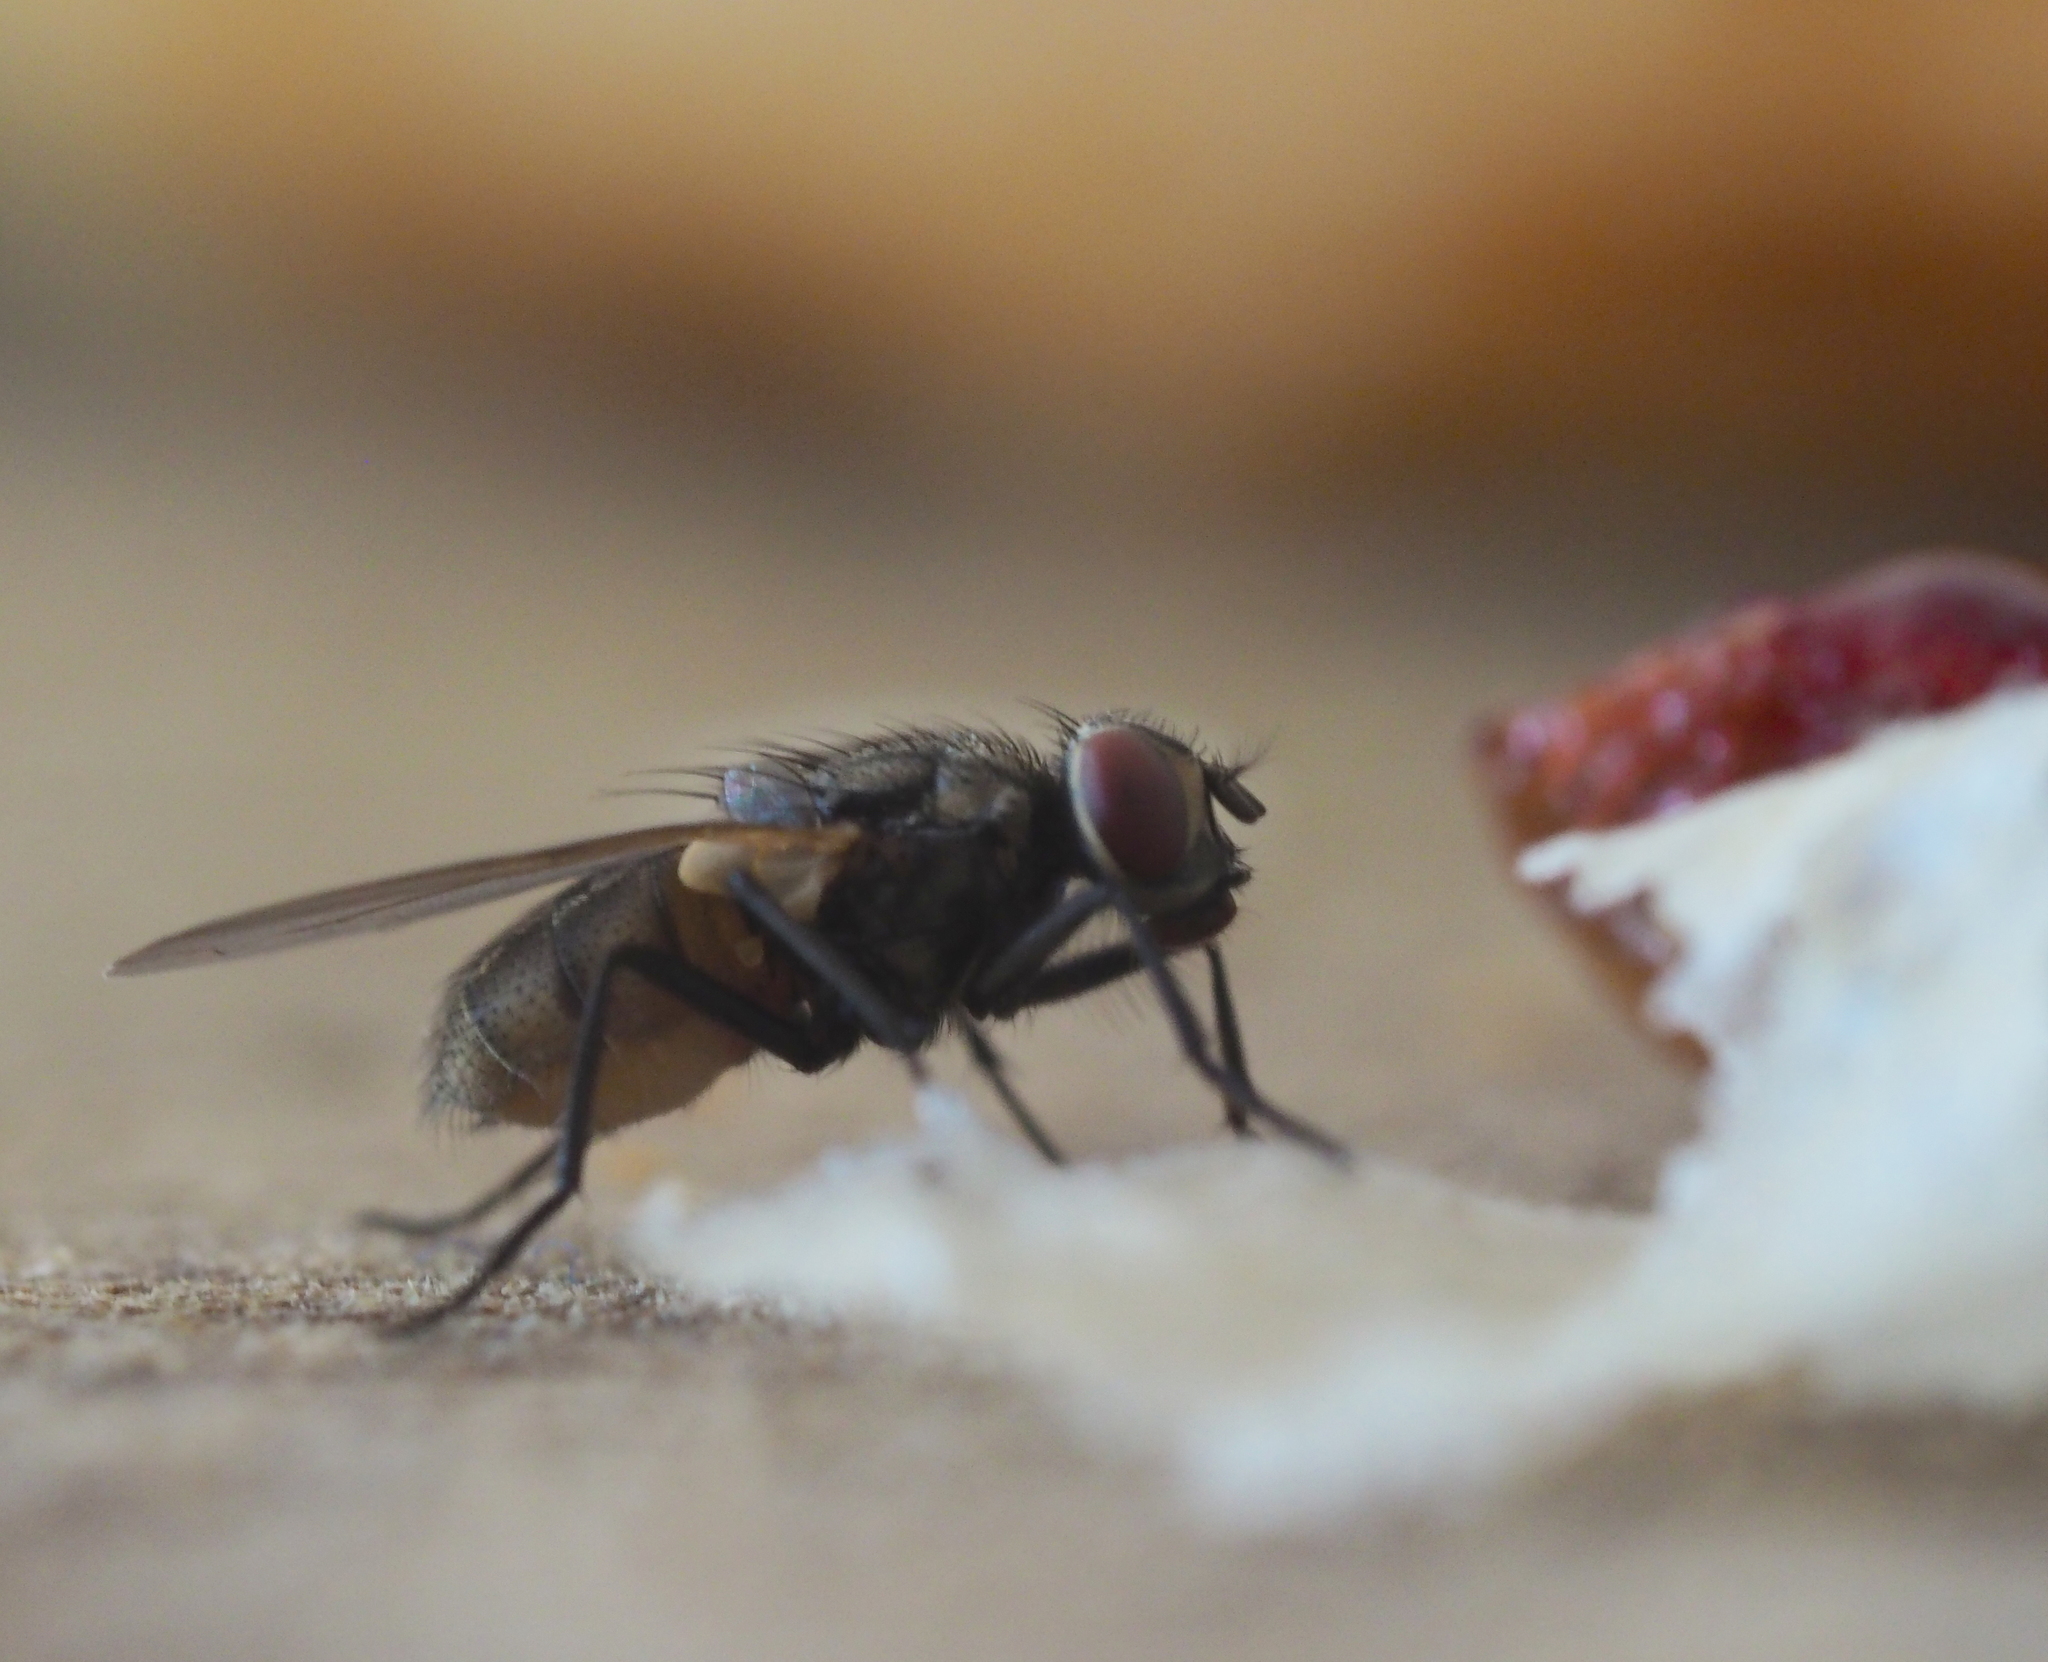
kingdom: Animalia
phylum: Arthropoda
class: Insecta
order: Diptera
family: Muscidae
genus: Musca
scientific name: Musca domestica
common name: House fly
